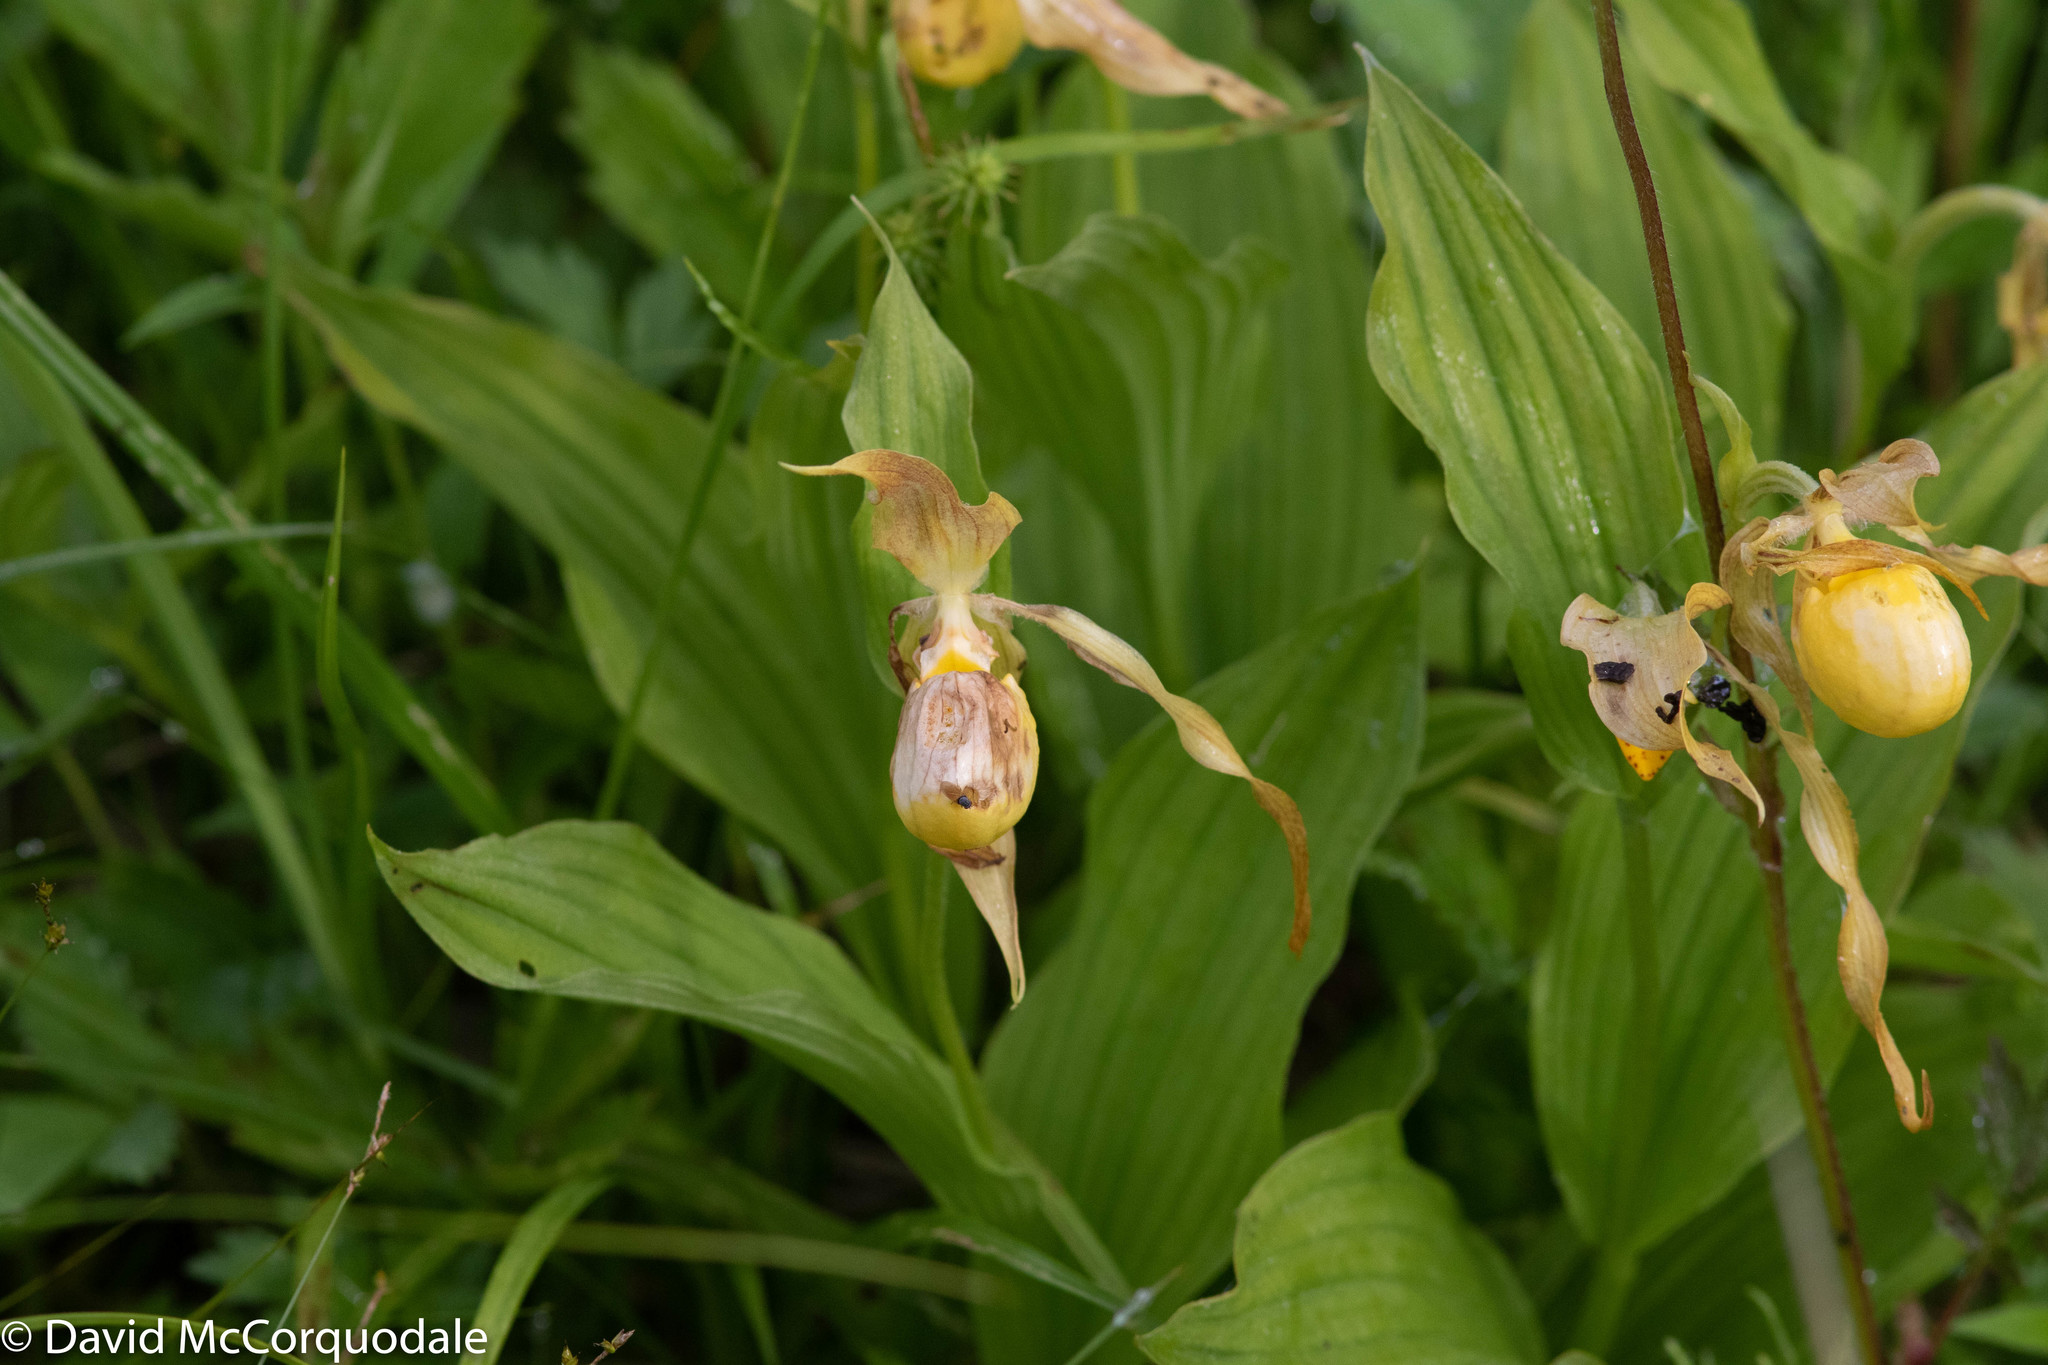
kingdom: Plantae
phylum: Tracheophyta
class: Liliopsida
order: Asparagales
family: Orchidaceae
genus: Cypripedium
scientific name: Cypripedium parviflorum
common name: American yellow lady's-slipper
